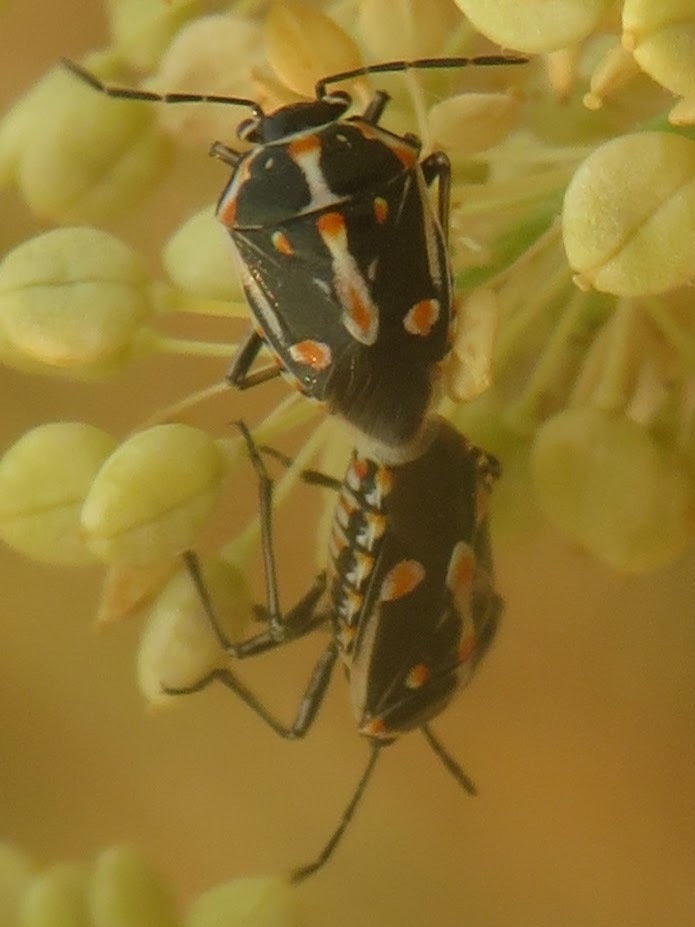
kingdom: Animalia
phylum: Arthropoda
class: Insecta
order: Hemiptera
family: Pentatomidae
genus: Bagrada
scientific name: Bagrada hilaris
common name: Bagrada bug
